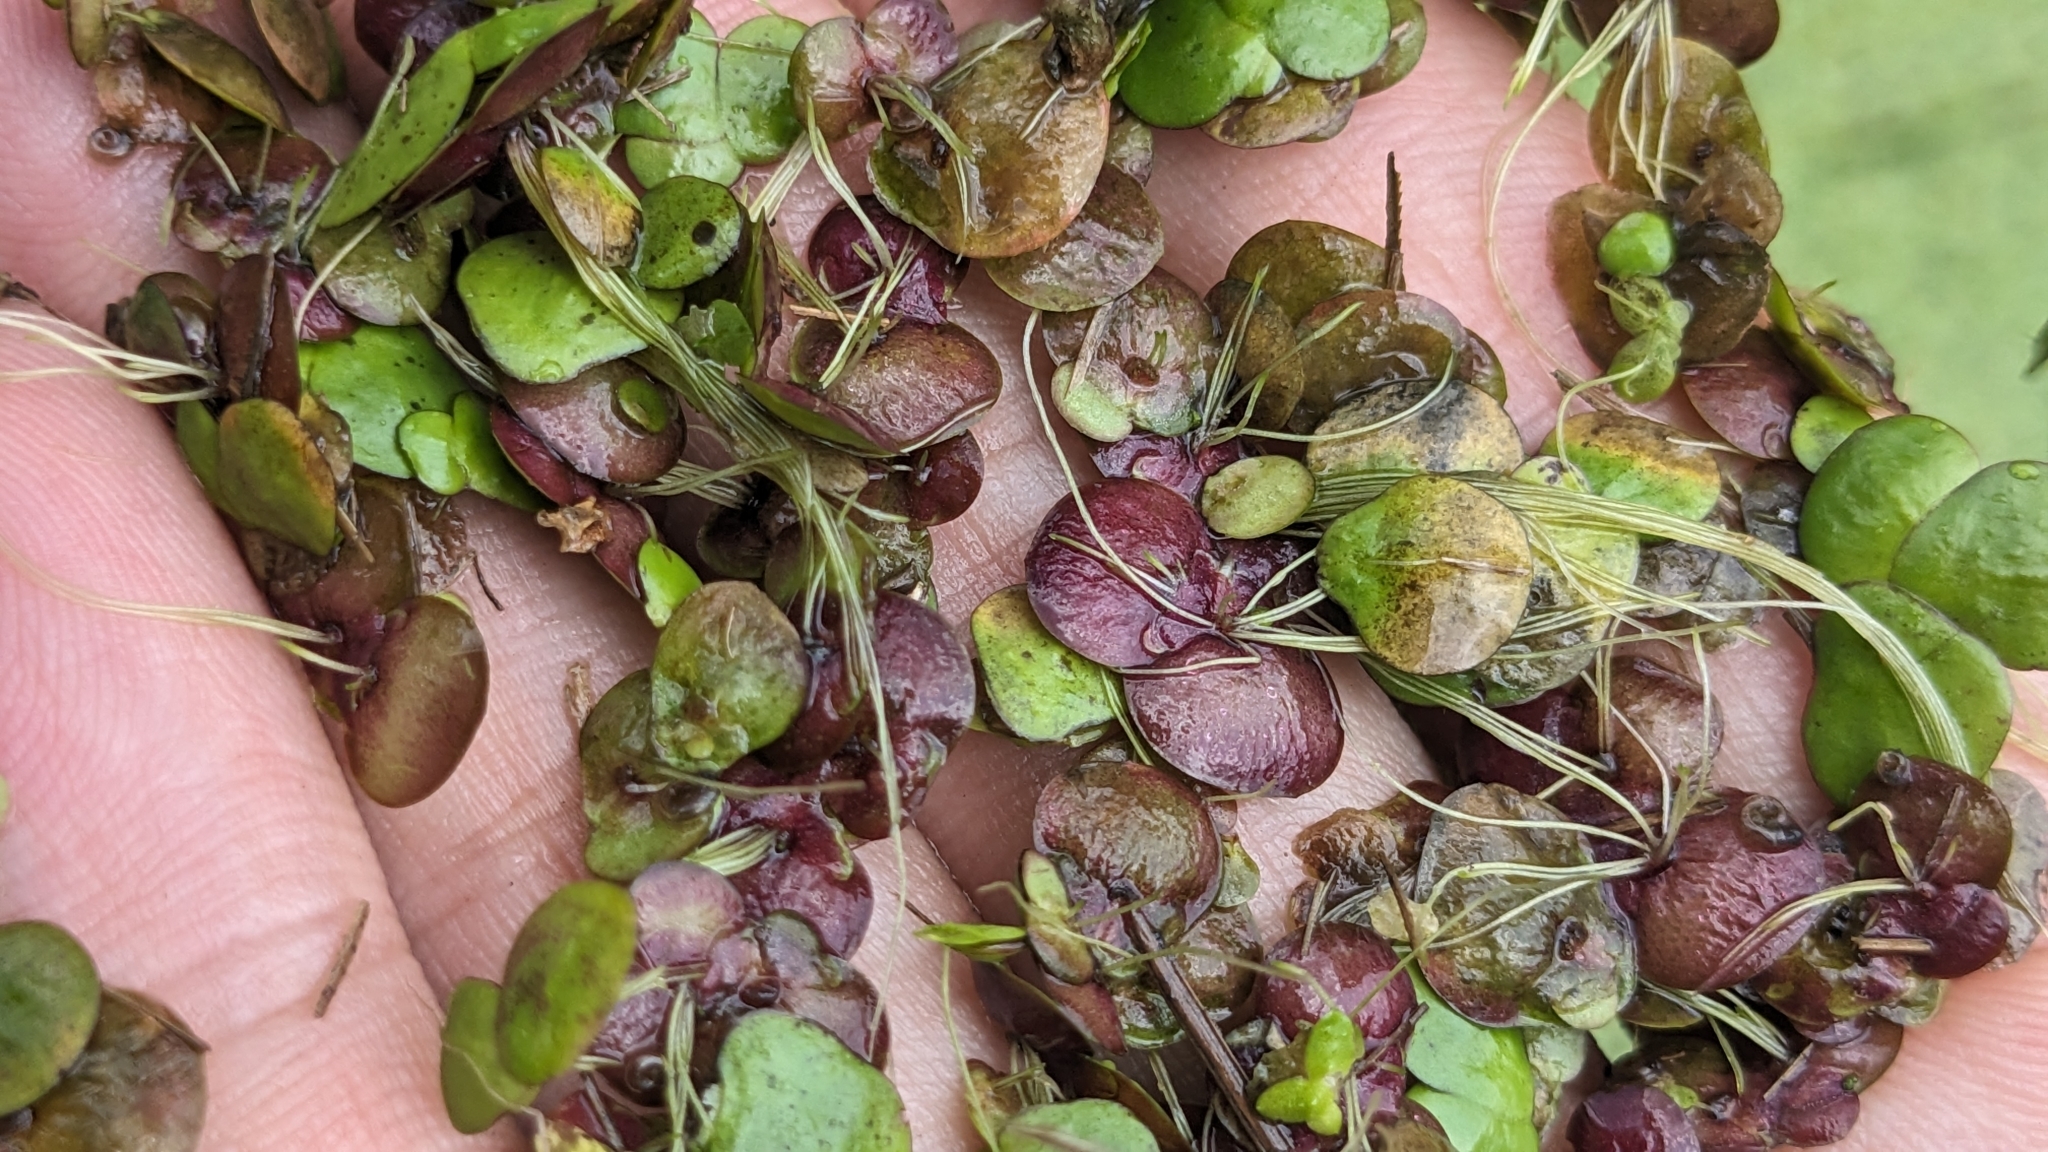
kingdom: Plantae
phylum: Tracheophyta
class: Liliopsida
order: Alismatales
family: Araceae
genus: Spirodela
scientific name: Spirodela polyrhiza
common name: Great duckweed
